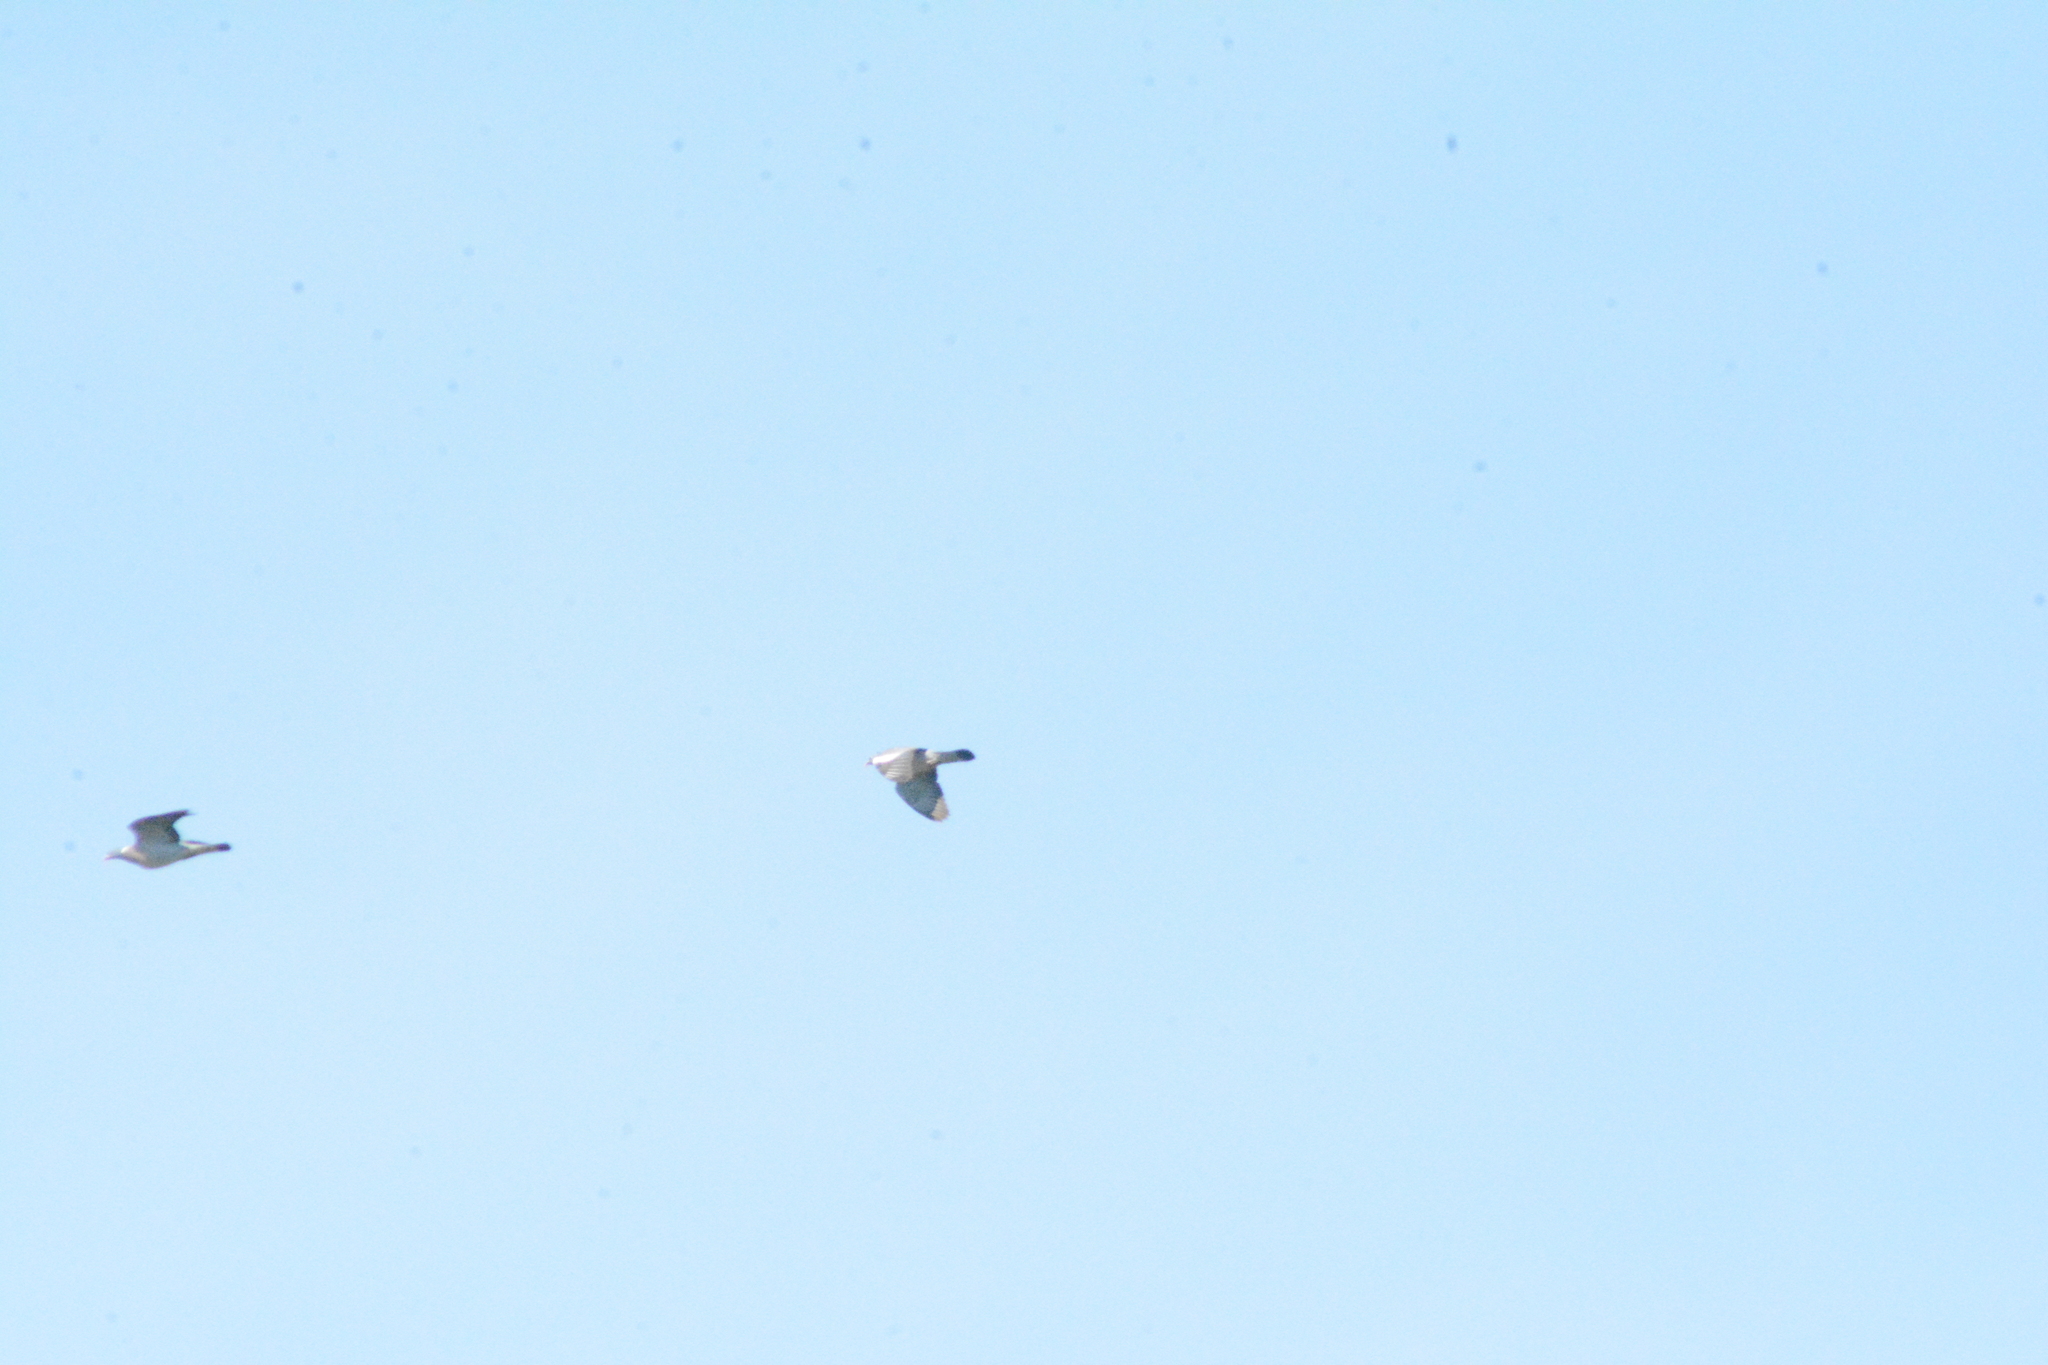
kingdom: Animalia
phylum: Chordata
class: Aves
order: Columbiformes
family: Columbidae
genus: Columba
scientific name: Columba palumbus
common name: Common wood pigeon
